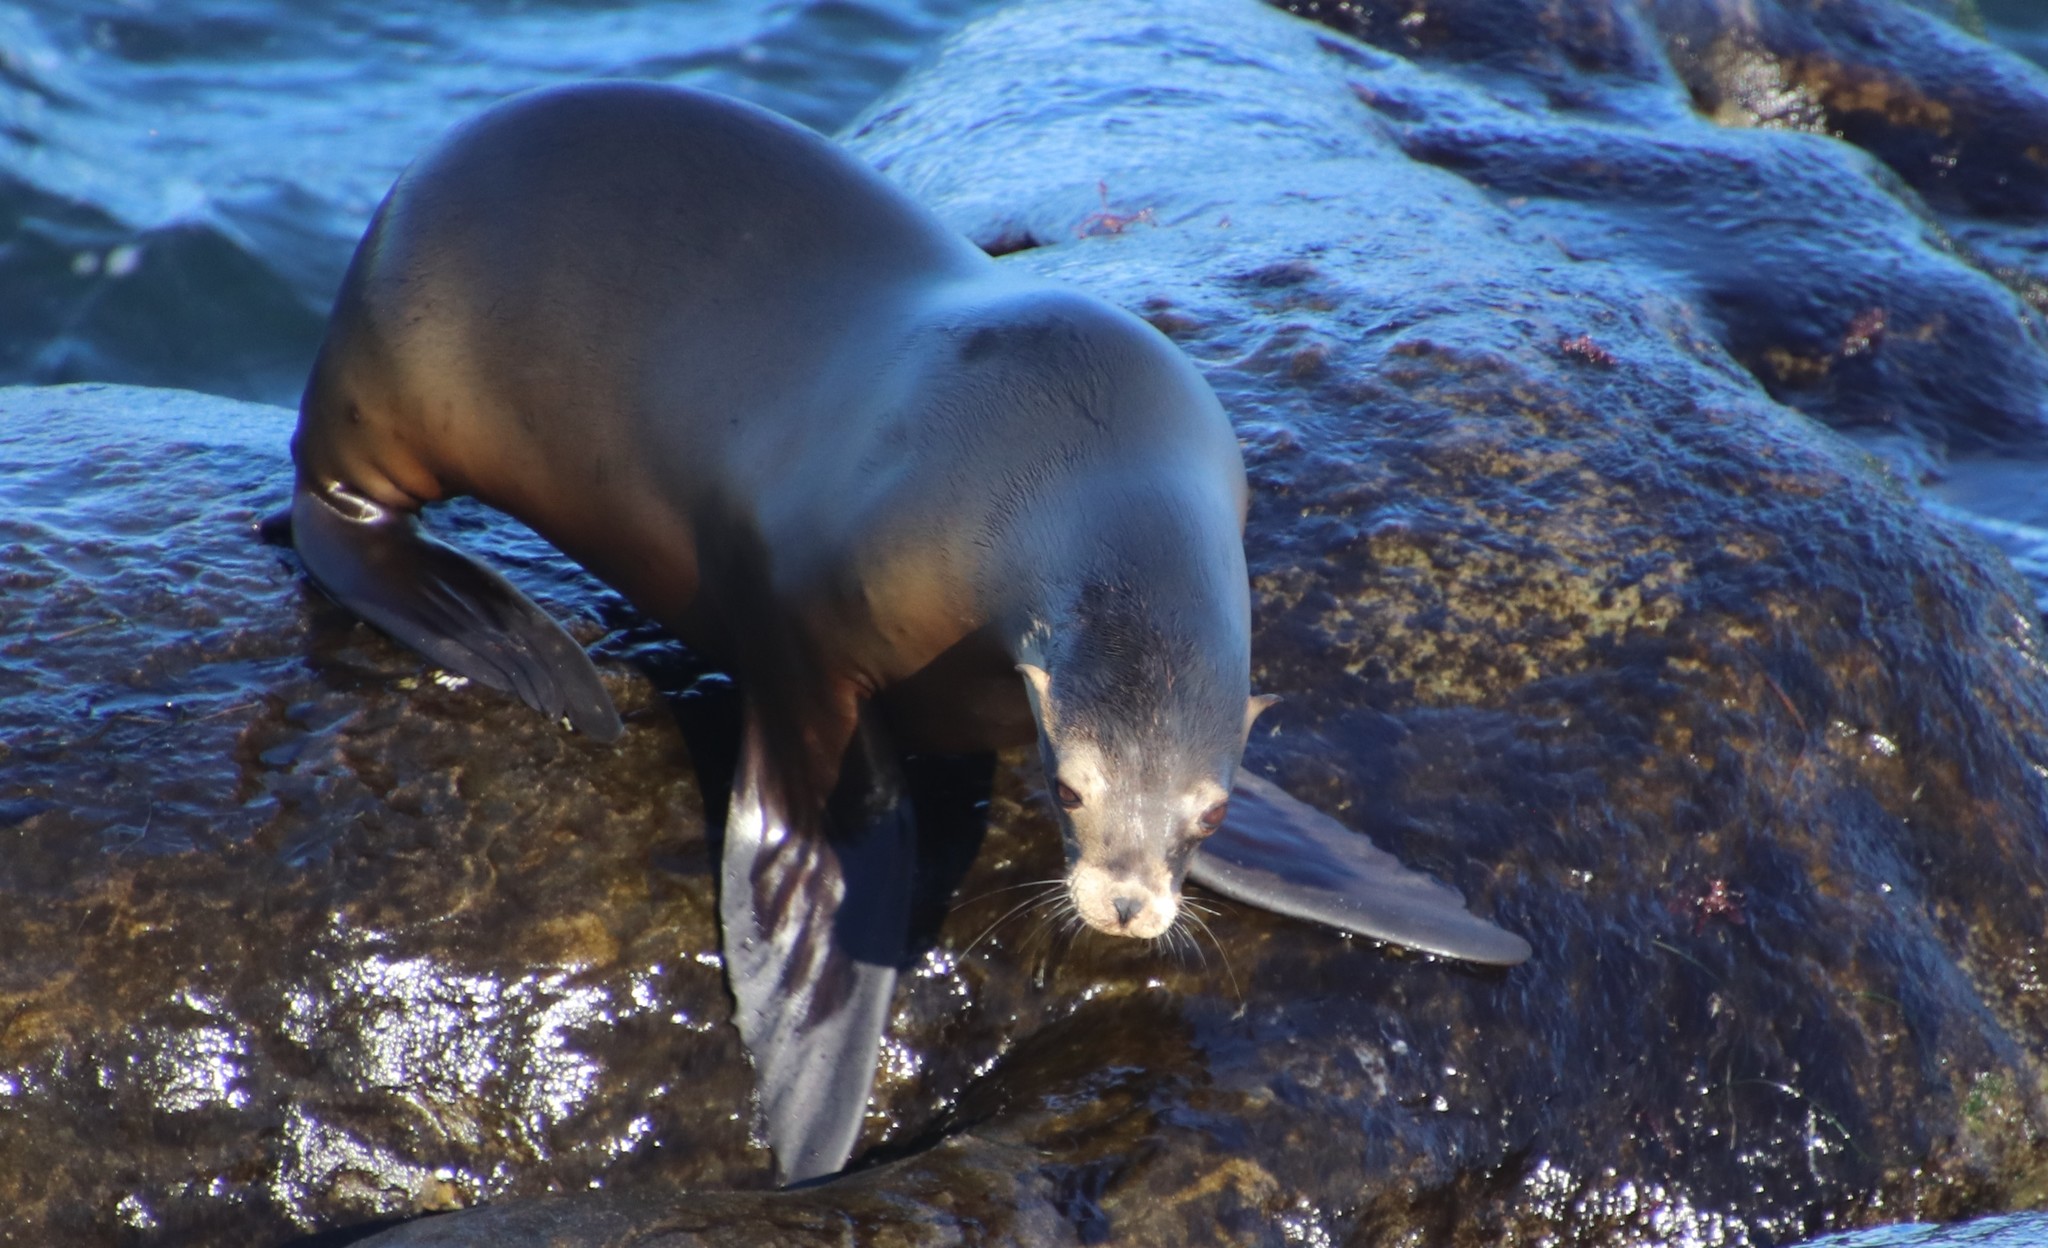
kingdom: Animalia
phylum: Chordata
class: Mammalia
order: Carnivora
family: Otariidae
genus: Zalophus
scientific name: Zalophus californianus
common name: California sea lion
